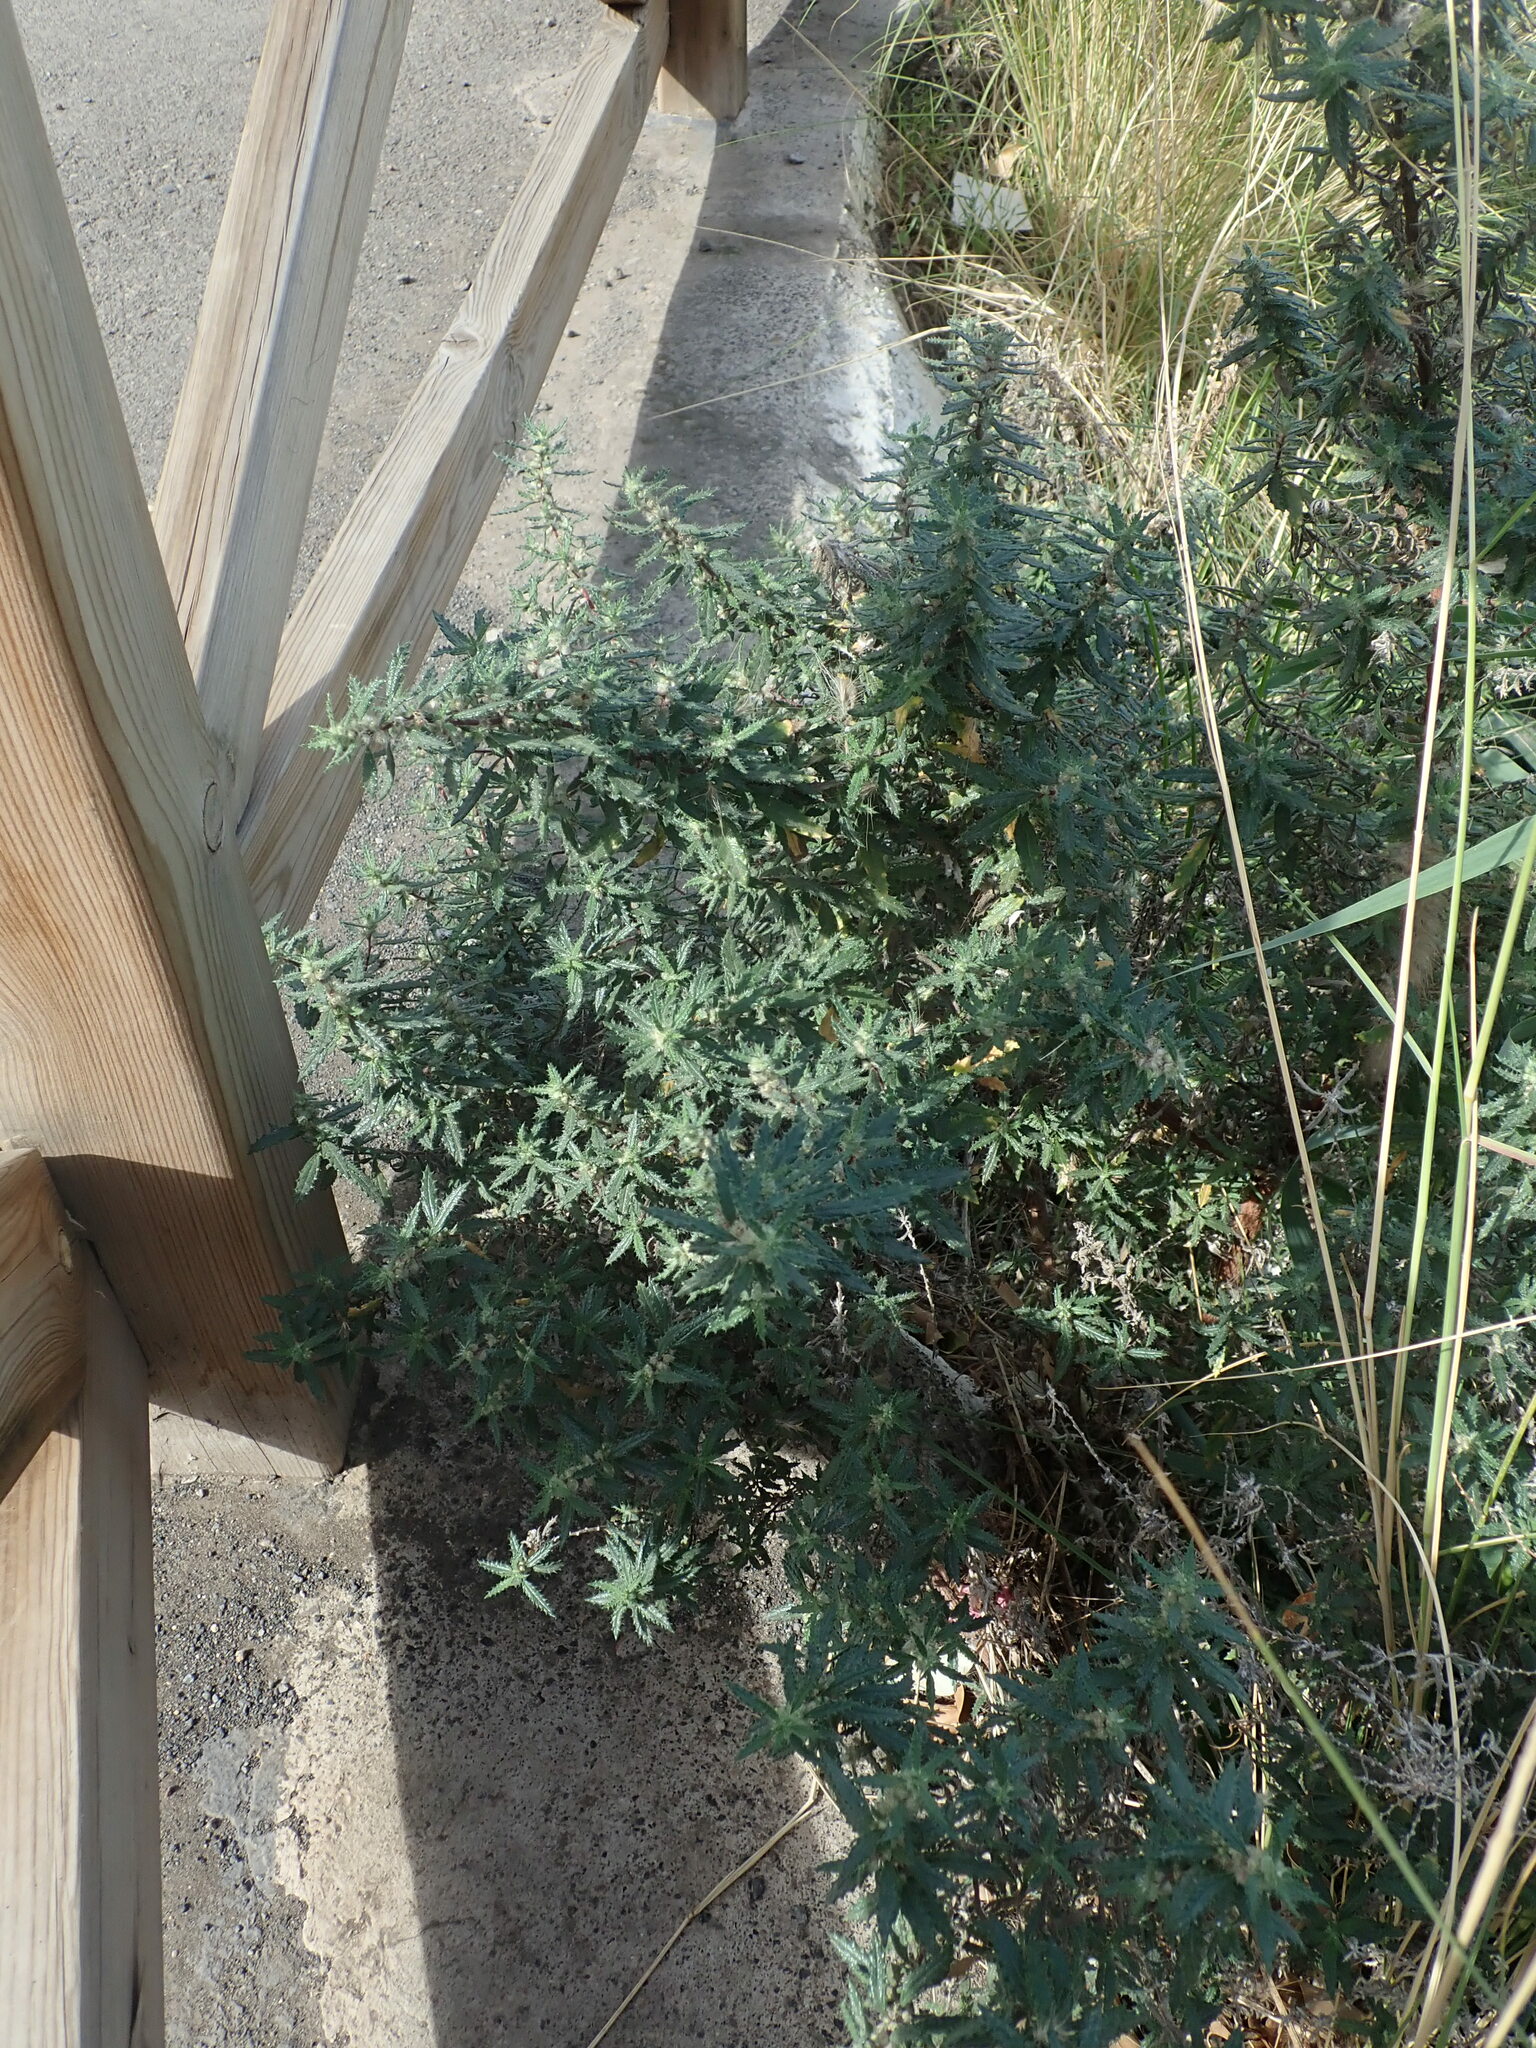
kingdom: Plantae
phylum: Tracheophyta
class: Magnoliopsida
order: Rosales
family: Urticaceae
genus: Forsskaolea
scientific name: Forsskaolea angustifolia
